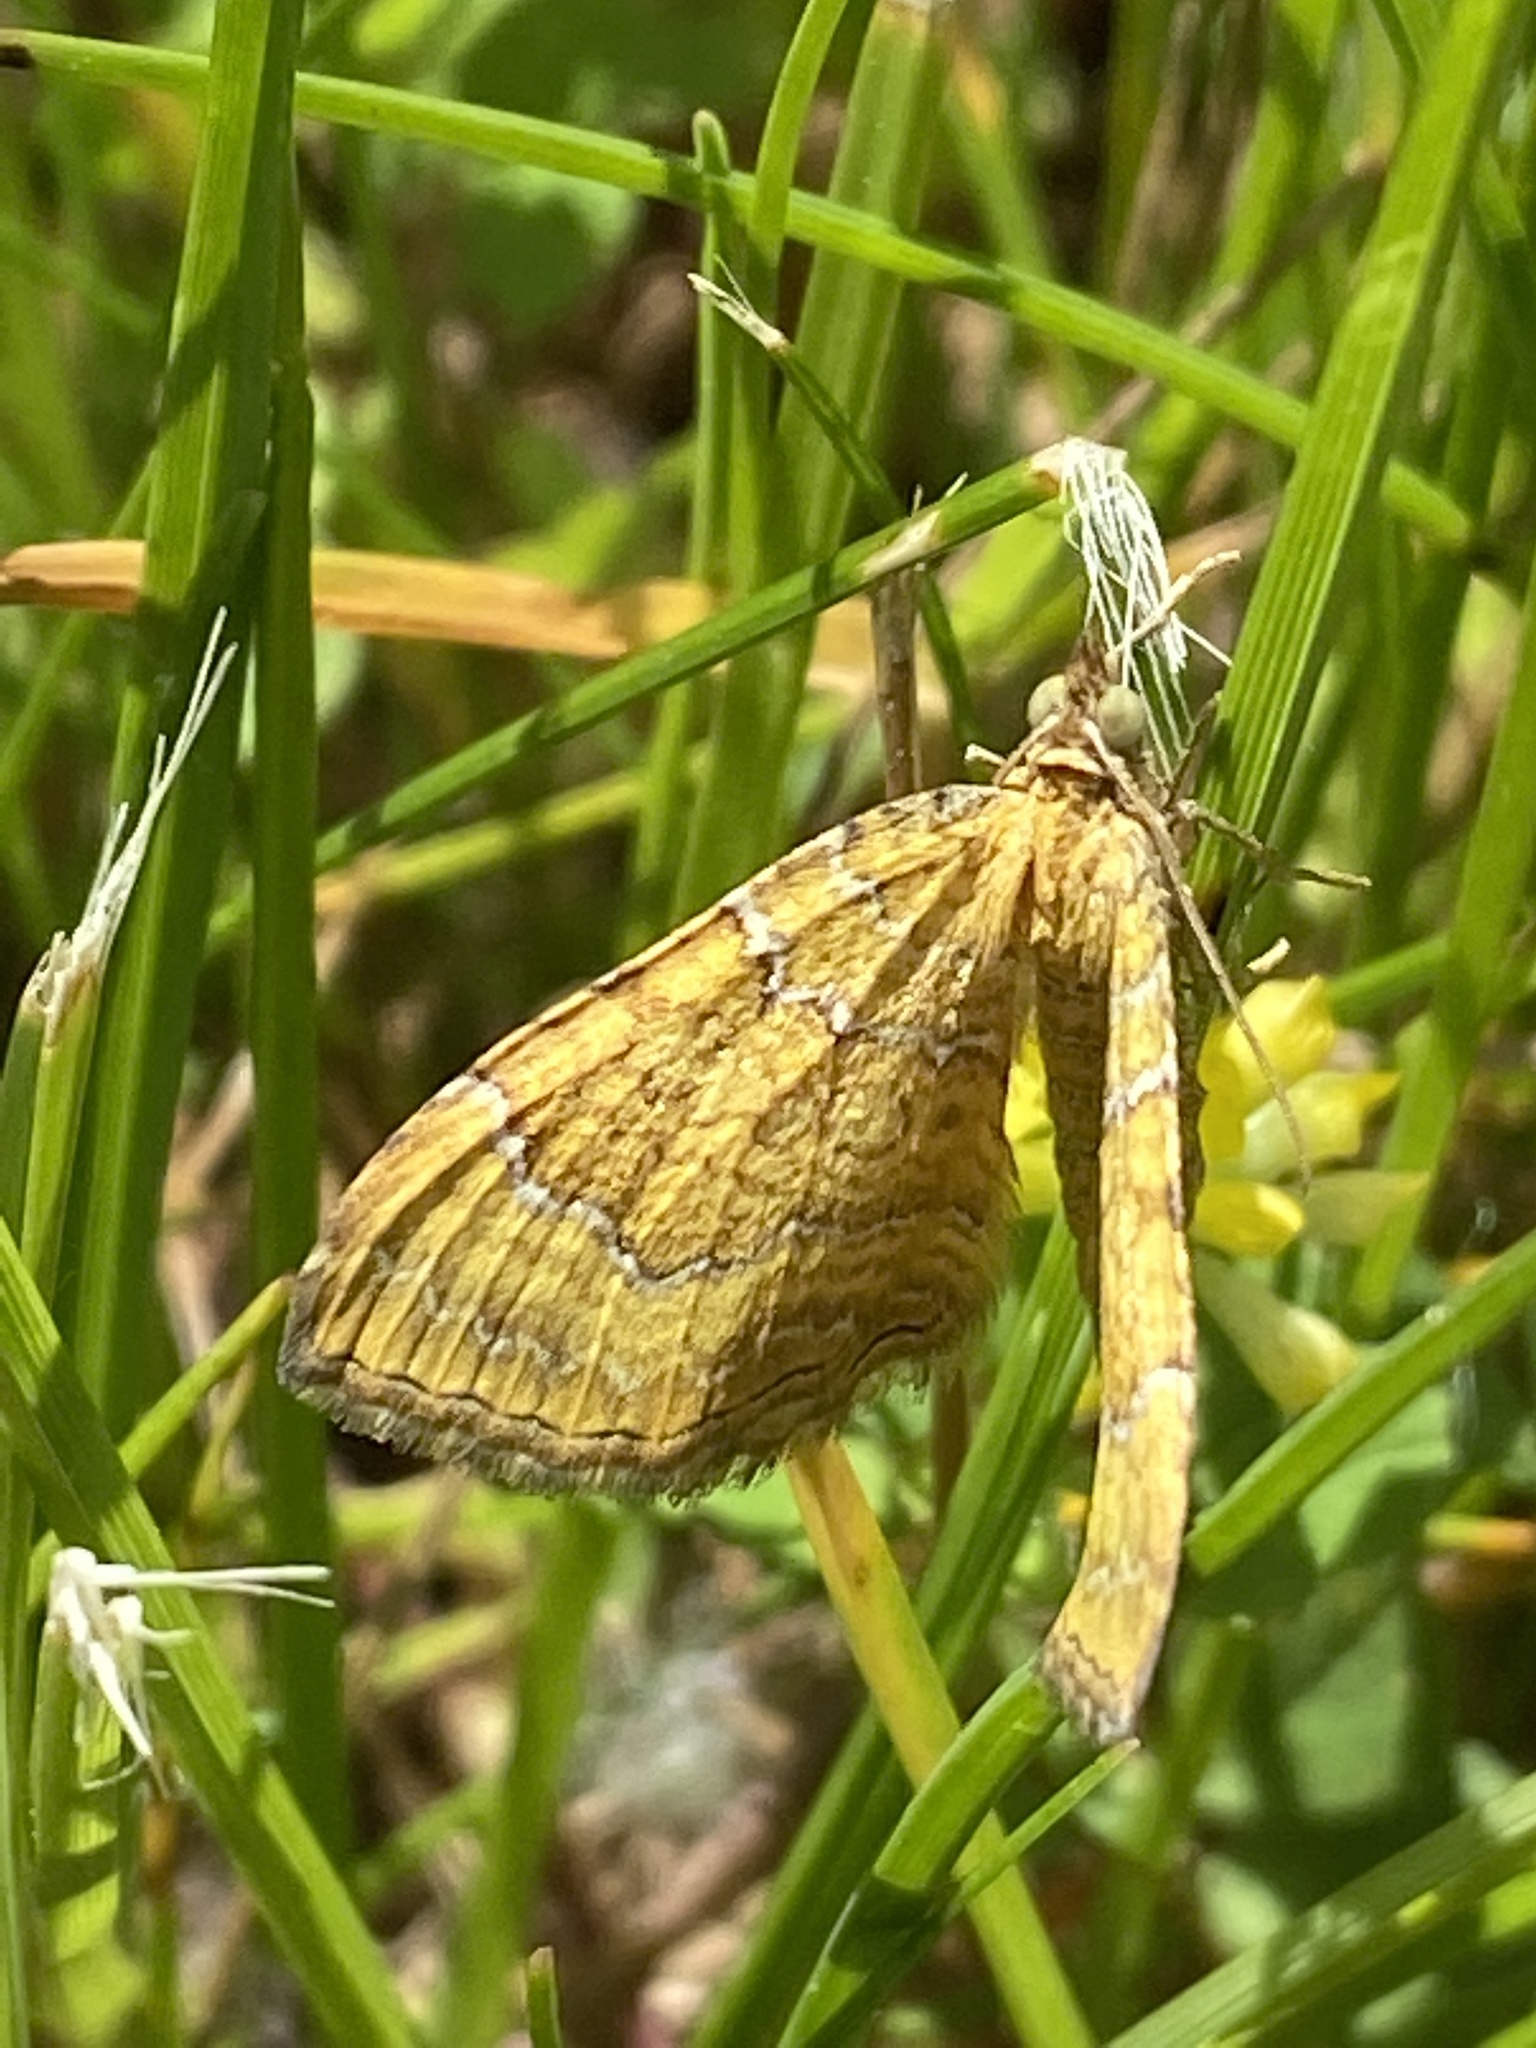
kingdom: Animalia
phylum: Arthropoda
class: Insecta
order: Lepidoptera
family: Geometridae
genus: Camptogramma
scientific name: Camptogramma bilineata
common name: Yellow shell
